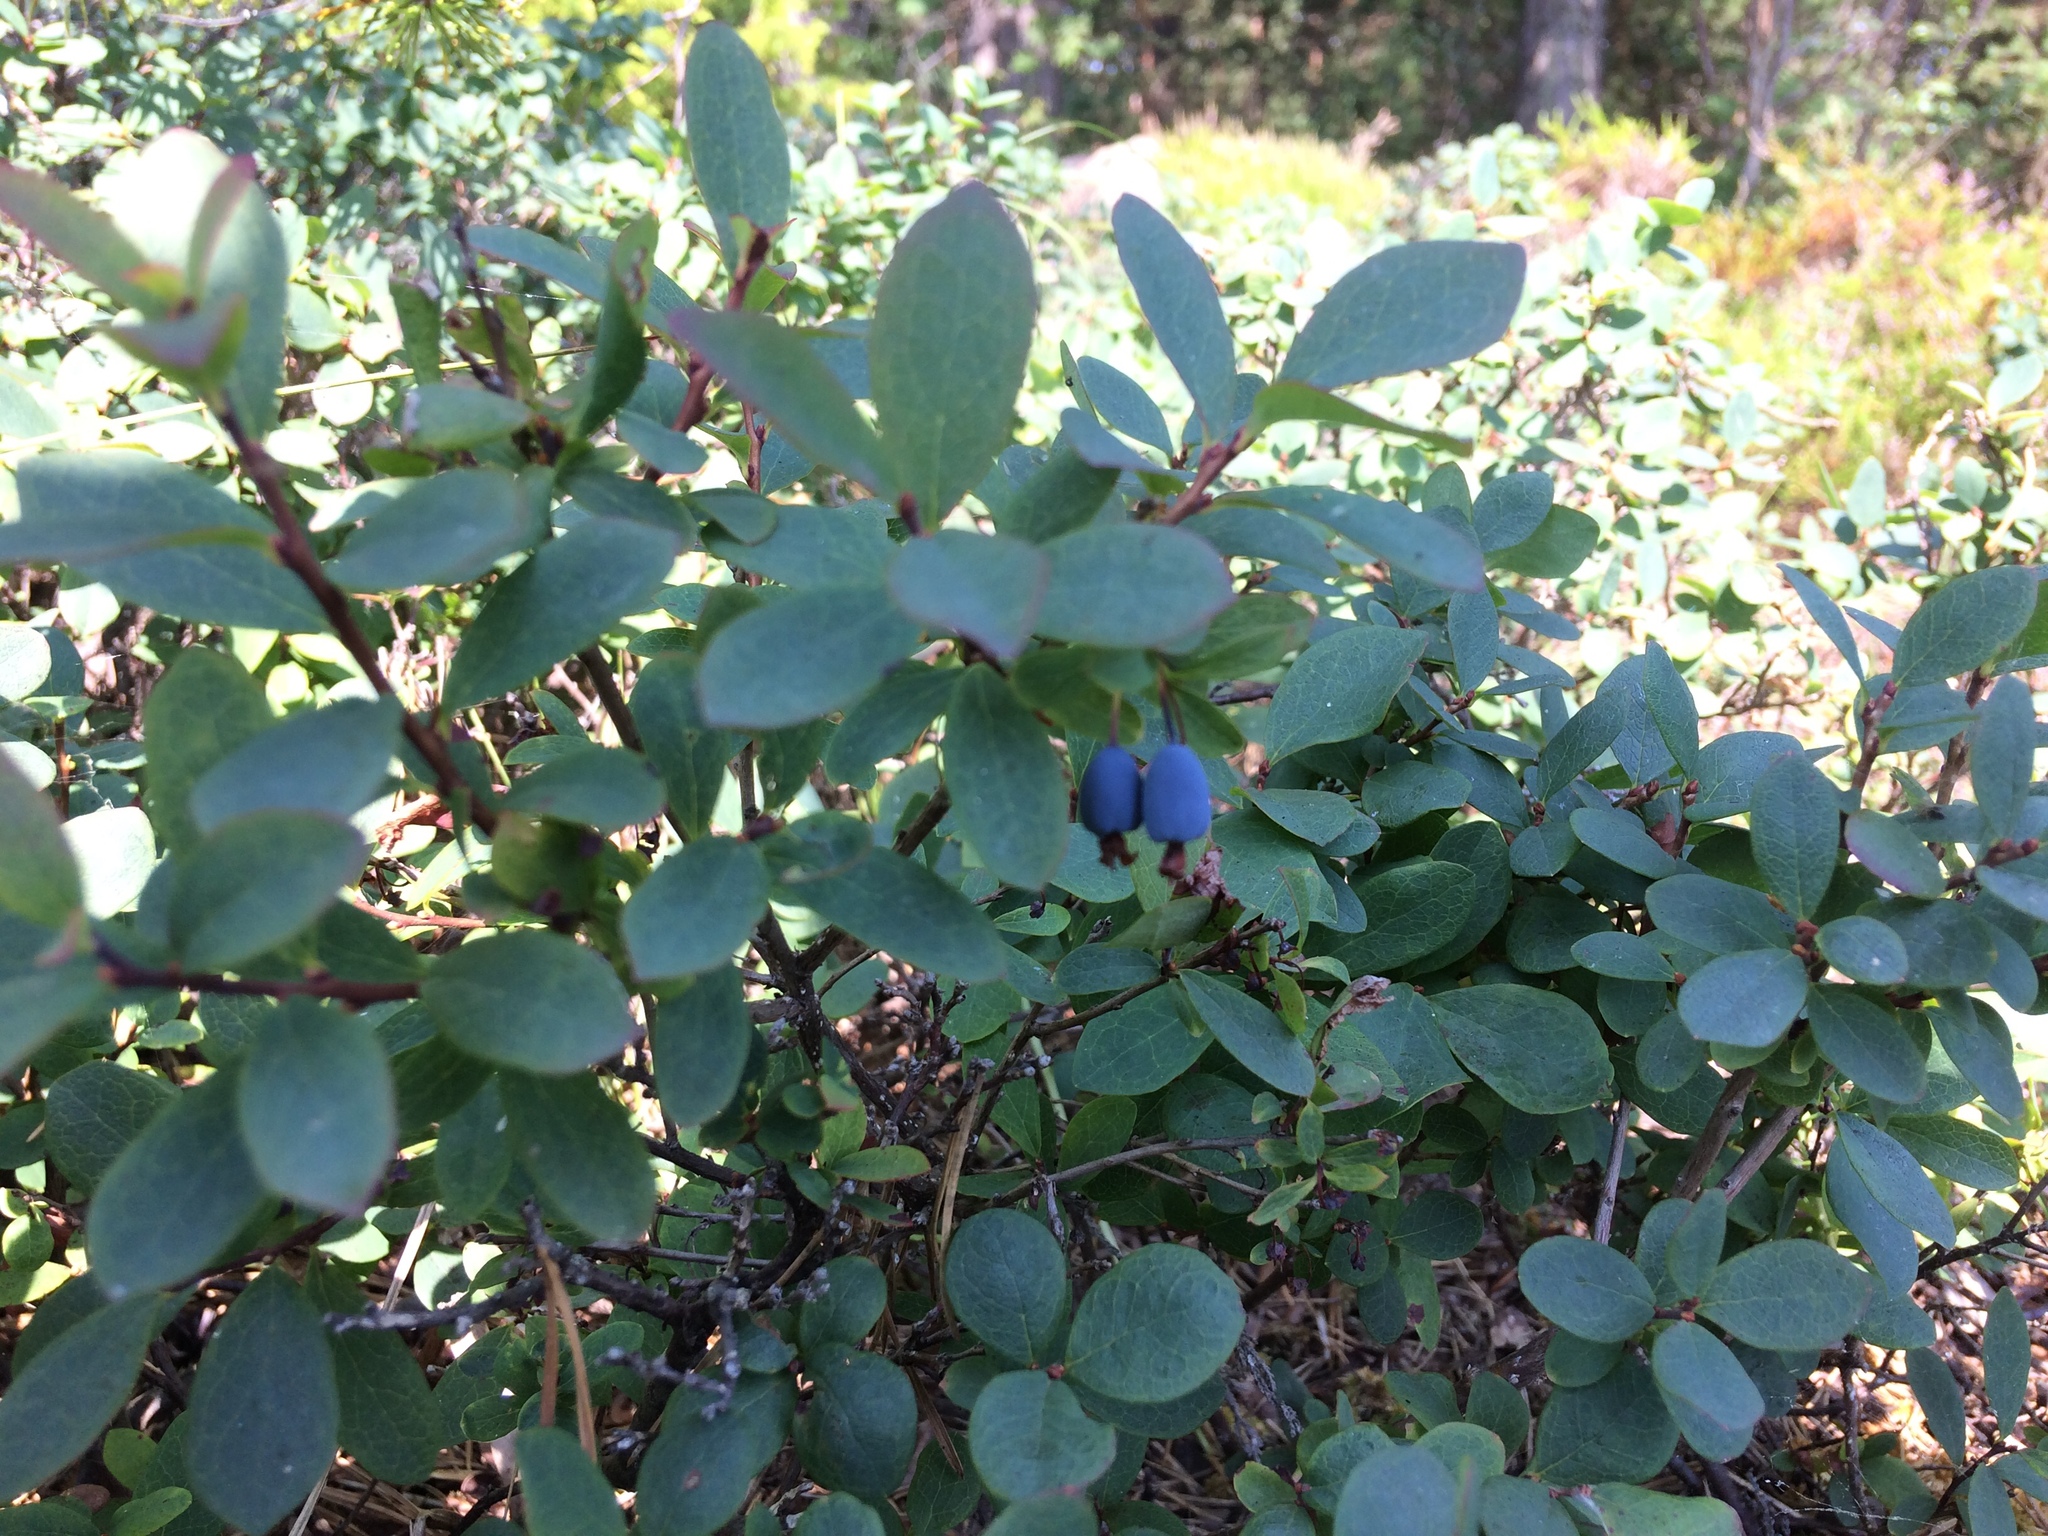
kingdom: Plantae
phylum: Tracheophyta
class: Magnoliopsida
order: Ericales
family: Ericaceae
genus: Vaccinium
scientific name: Vaccinium uliginosum
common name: Bog bilberry
